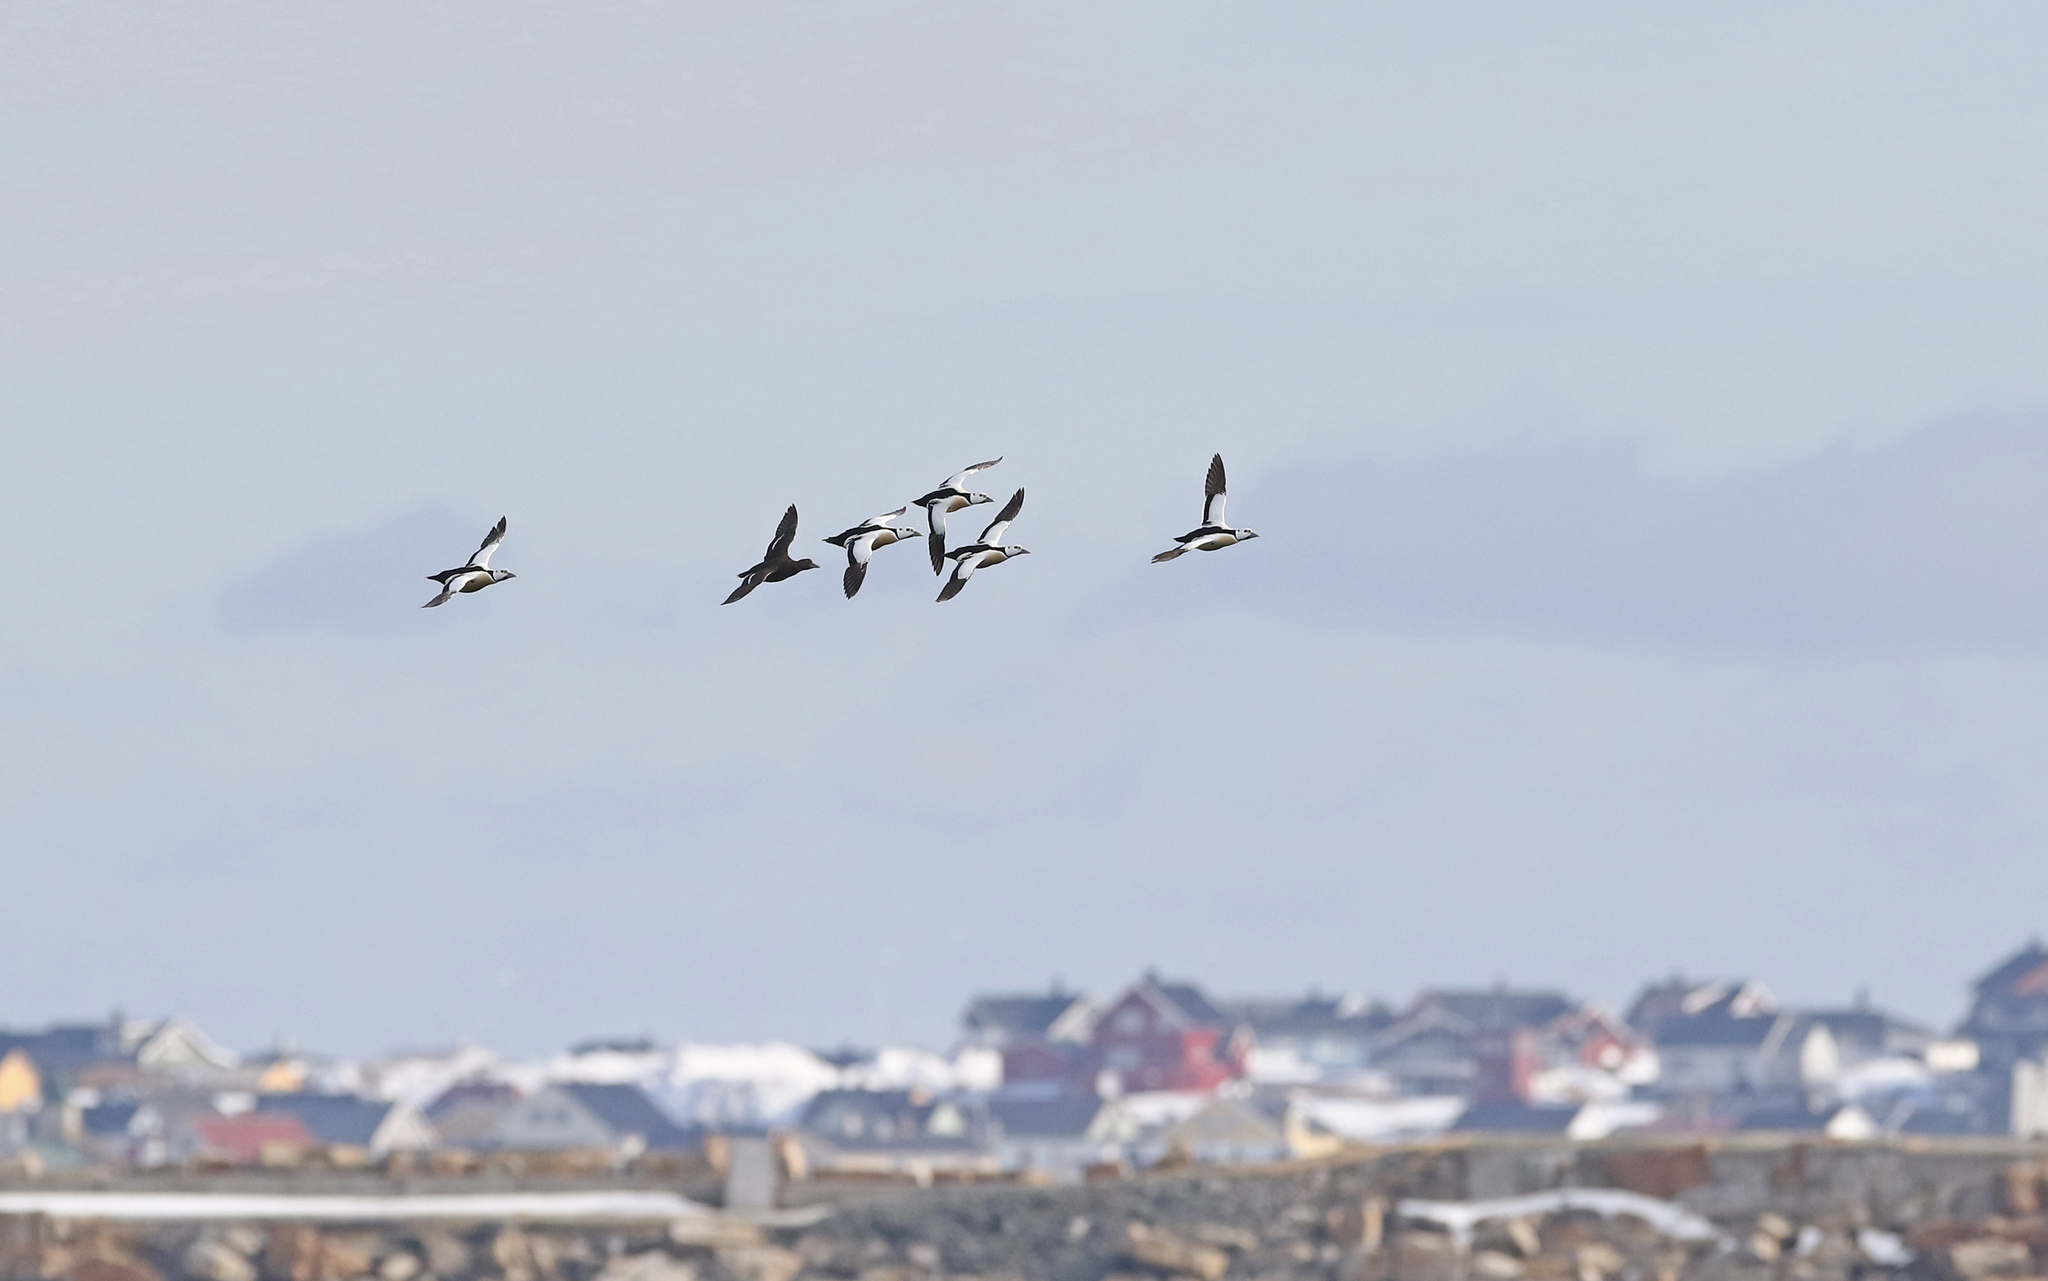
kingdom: Animalia
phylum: Chordata
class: Aves
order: Anseriformes
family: Anatidae
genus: Polysticta
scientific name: Polysticta stelleri
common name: Steller's eider
